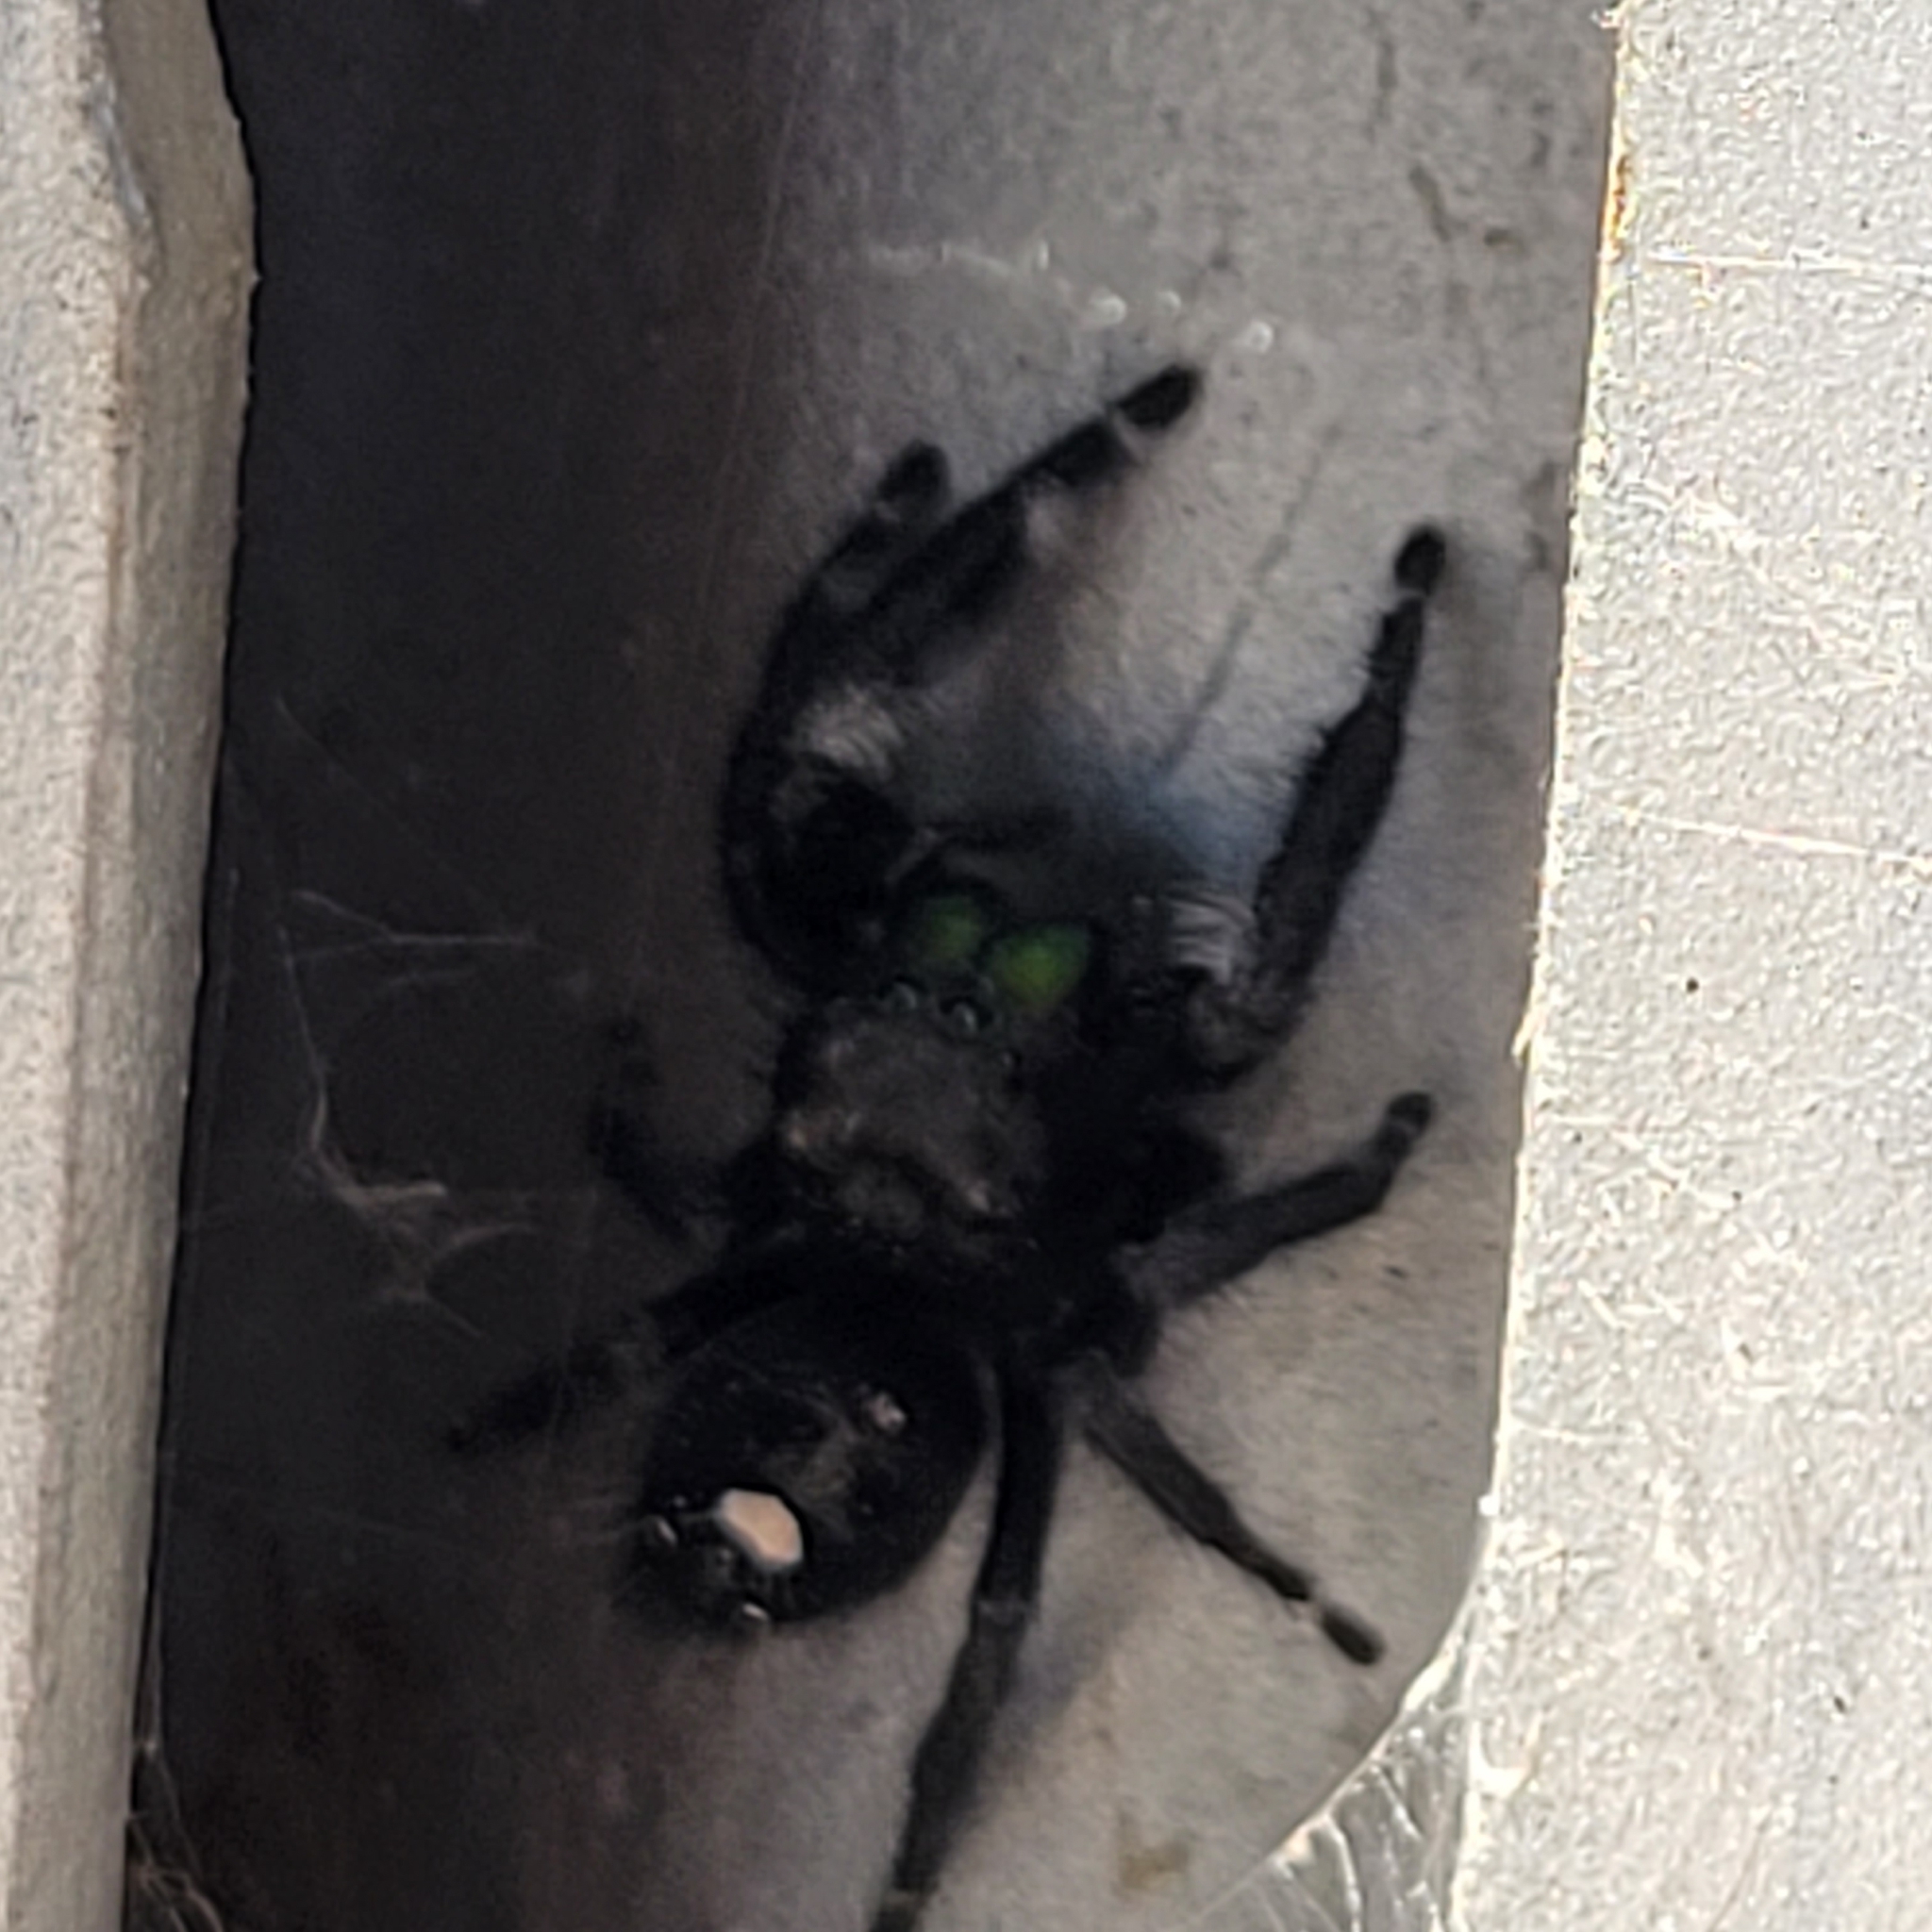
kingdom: Animalia
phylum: Arthropoda
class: Arachnida
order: Araneae
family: Salticidae
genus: Phidippus
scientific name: Phidippus audax
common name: Bold jumper
